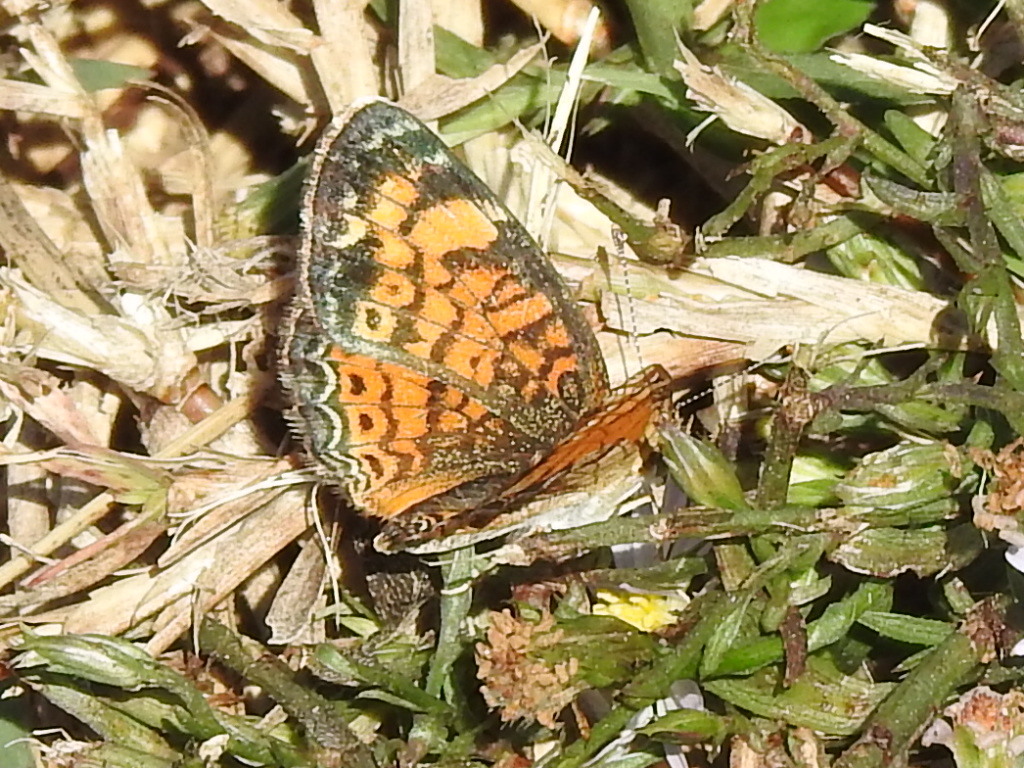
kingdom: Animalia
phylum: Arthropoda
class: Insecta
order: Lepidoptera
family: Nymphalidae
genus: Phyciodes
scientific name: Phyciodes tharos
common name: Pearl crescent
